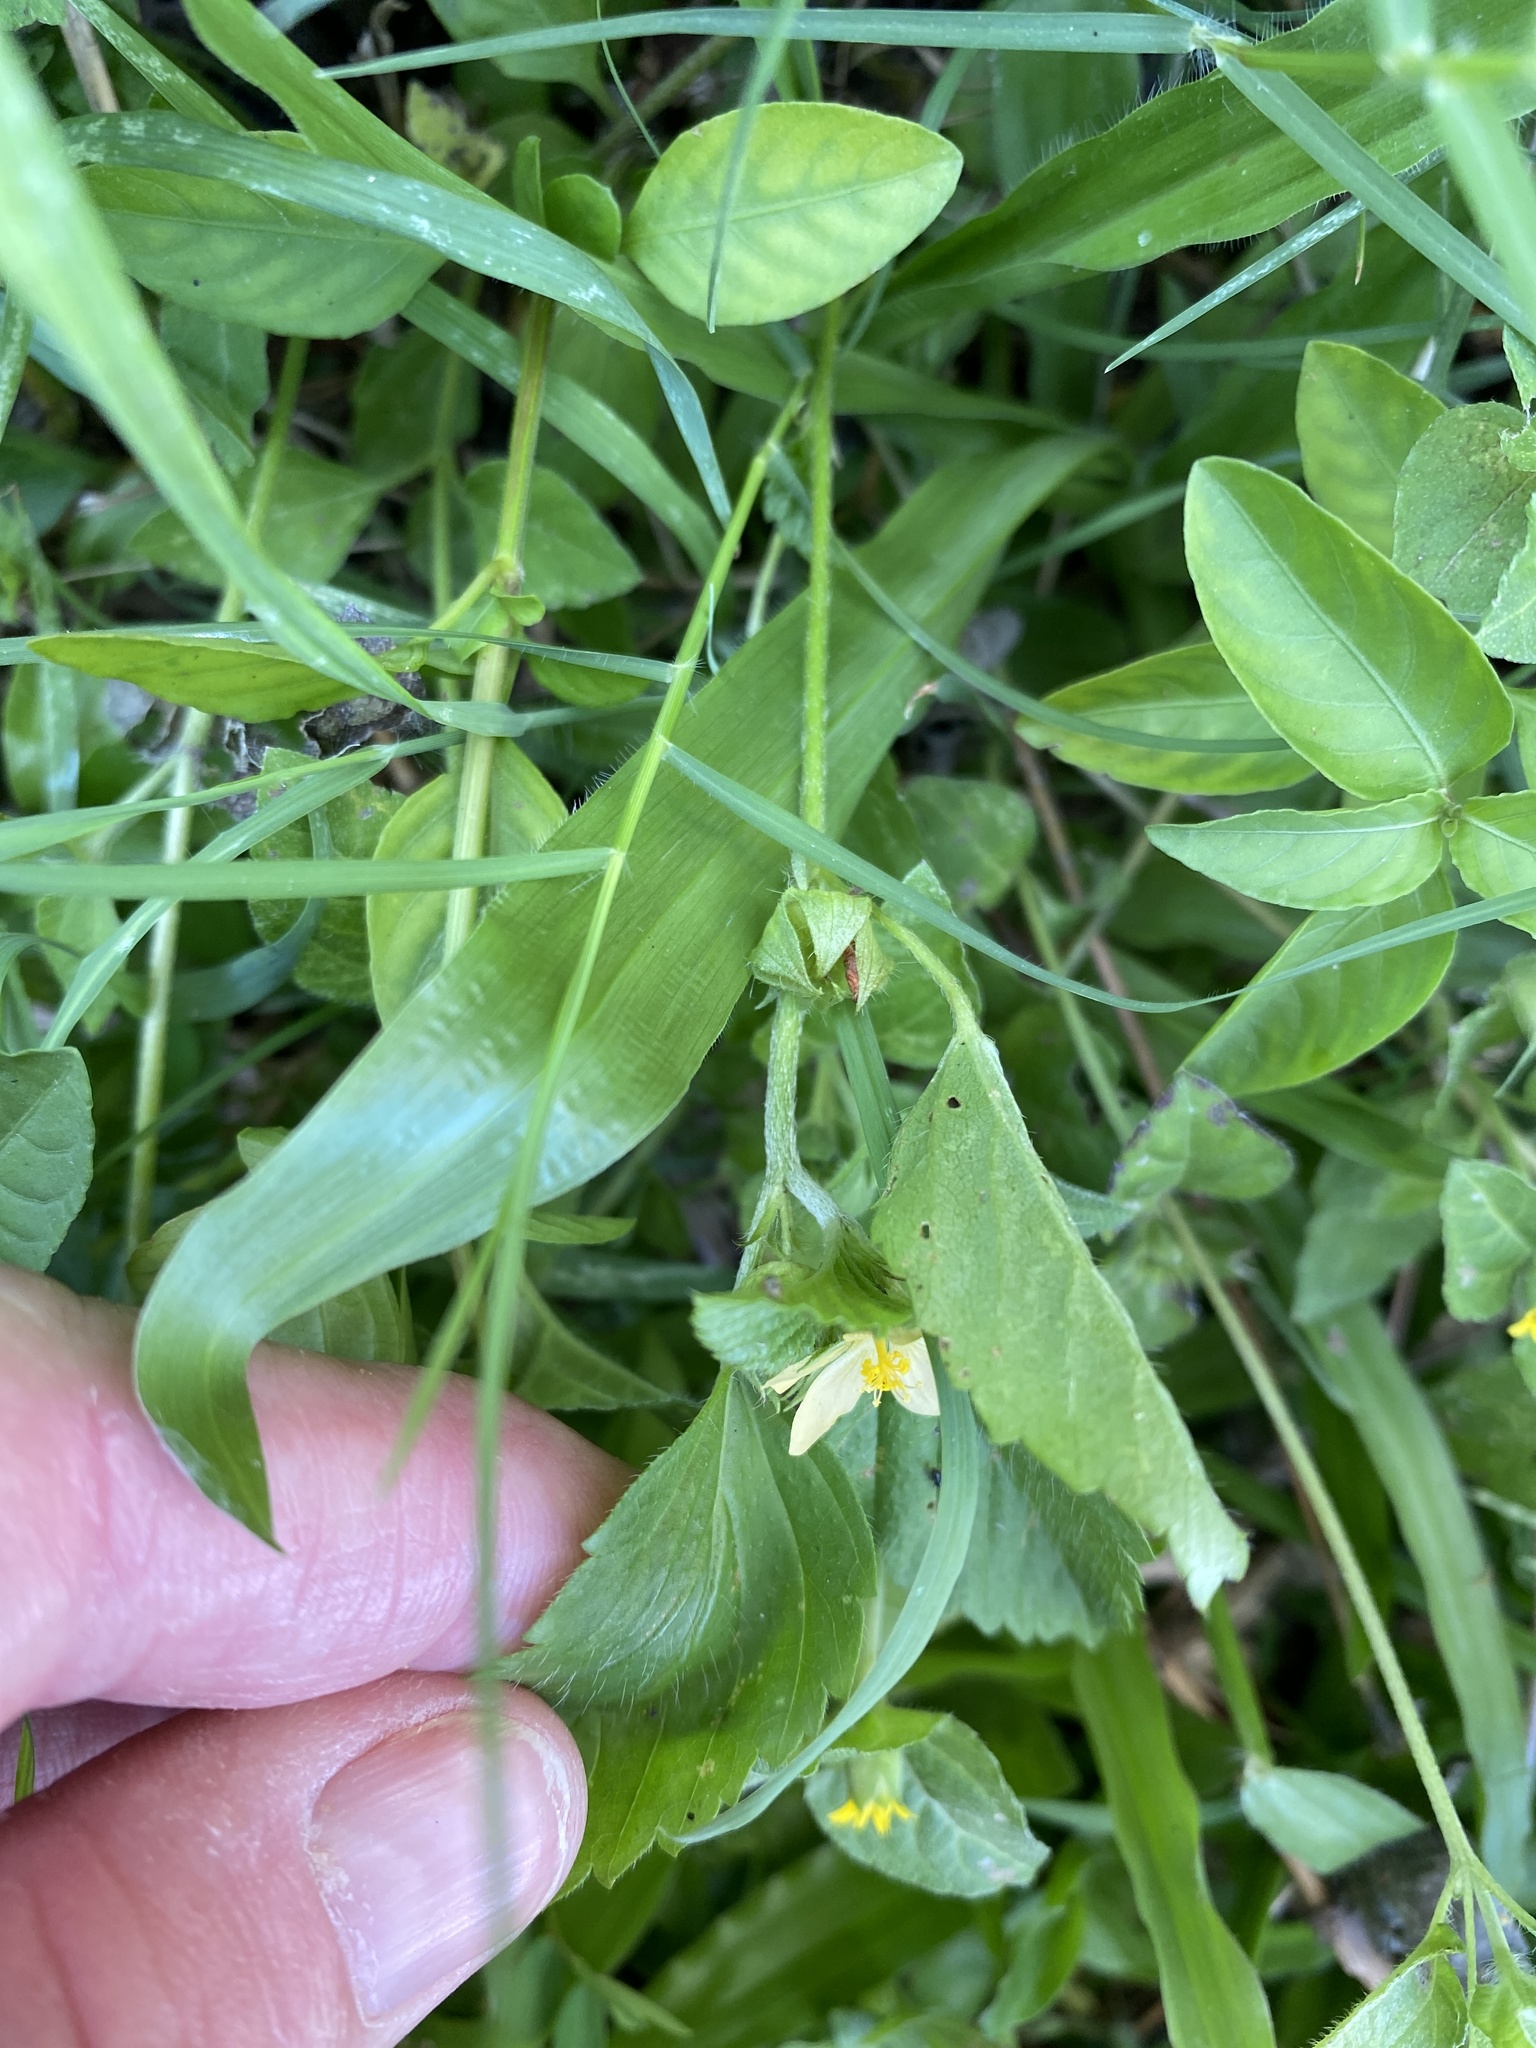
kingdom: Plantae
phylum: Tracheophyta
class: Magnoliopsida
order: Malvales
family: Malvaceae
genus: Malvastrum
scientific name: Malvastrum coromandelianum
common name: Threelobe false mallow
